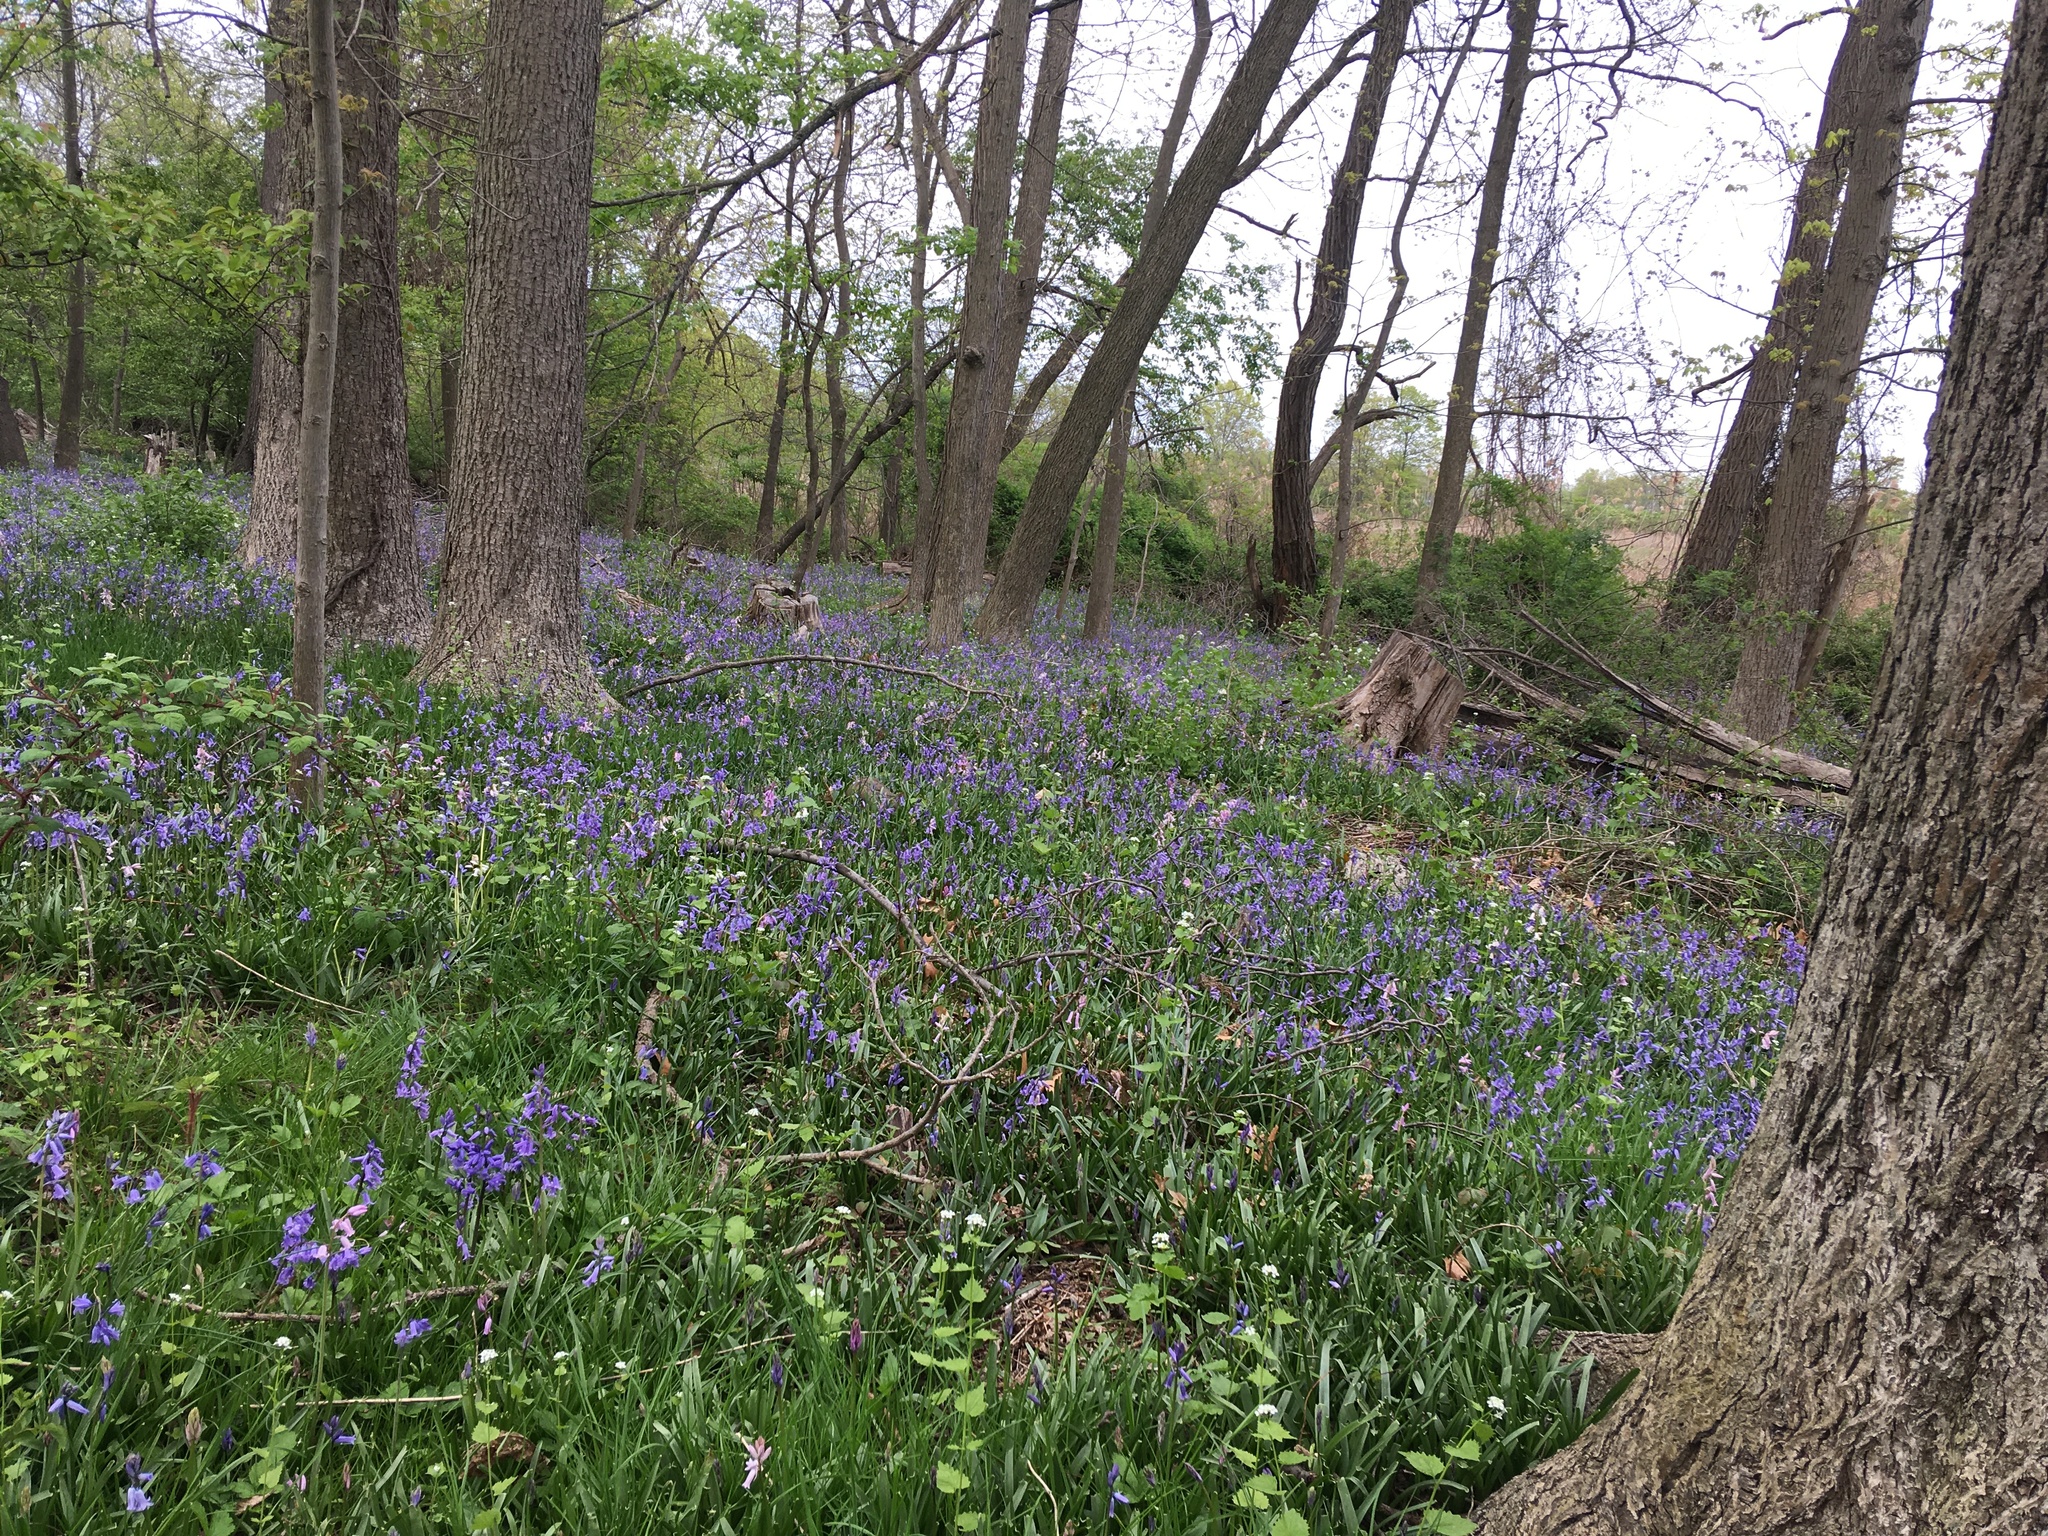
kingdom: Plantae
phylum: Tracheophyta
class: Liliopsida
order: Asparagales
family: Asparagaceae
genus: Hyacinthoides
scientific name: Hyacinthoides massartiana
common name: Hyacinthoides
